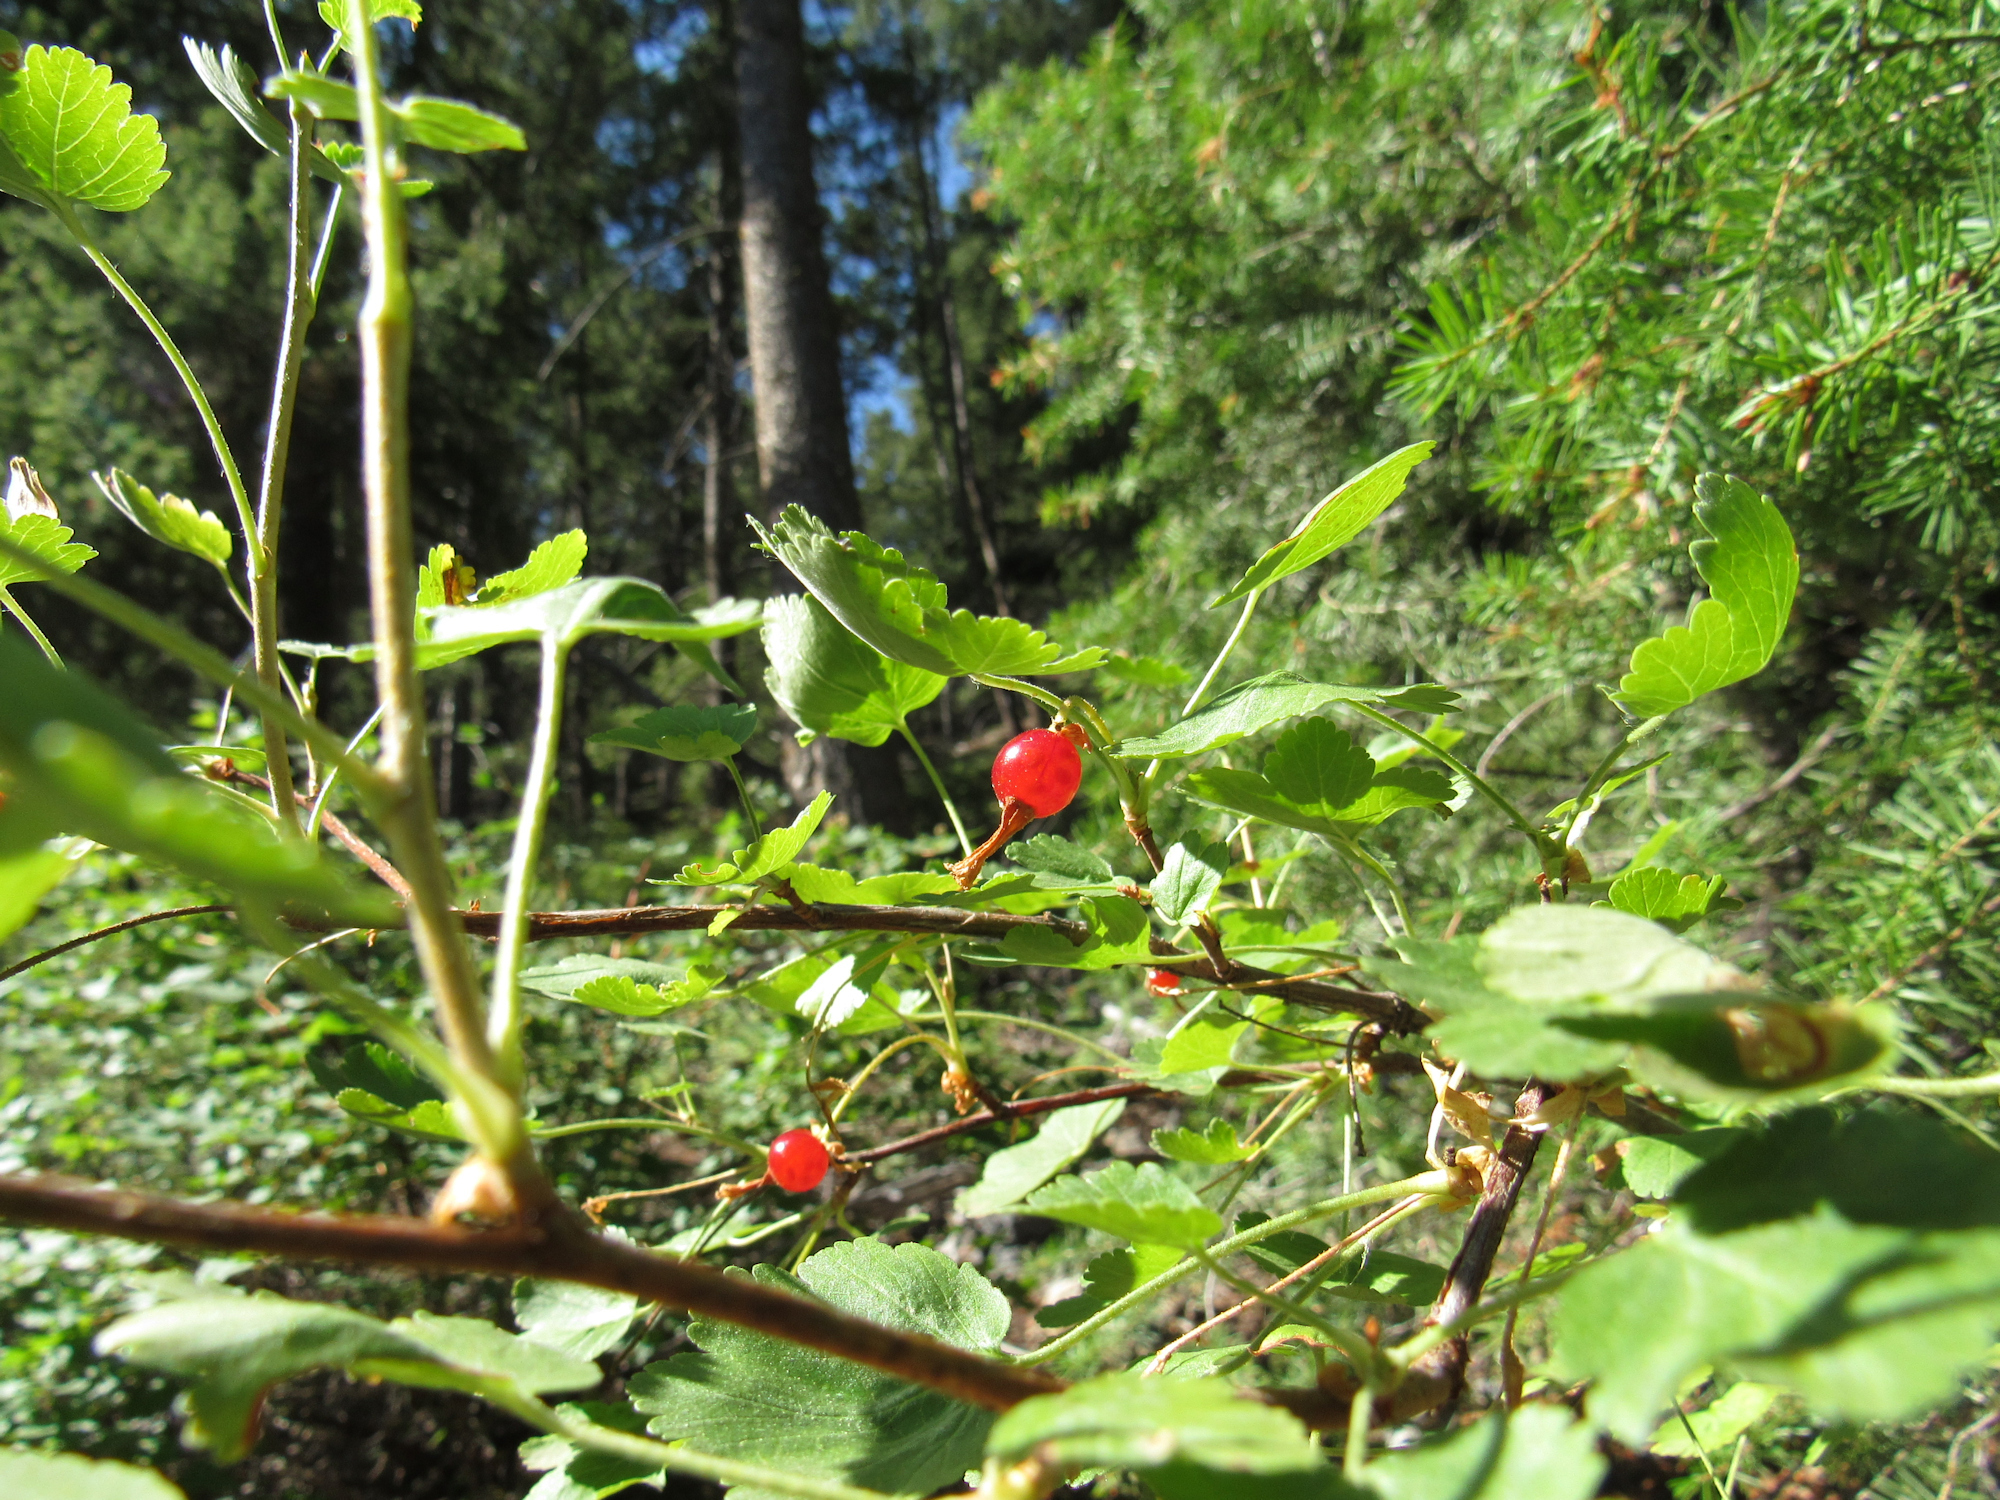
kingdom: Plantae
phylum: Tracheophyta
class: Magnoliopsida
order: Saxifragales
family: Grossulariaceae
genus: Ribes
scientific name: Ribes cereum
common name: Wax currant
